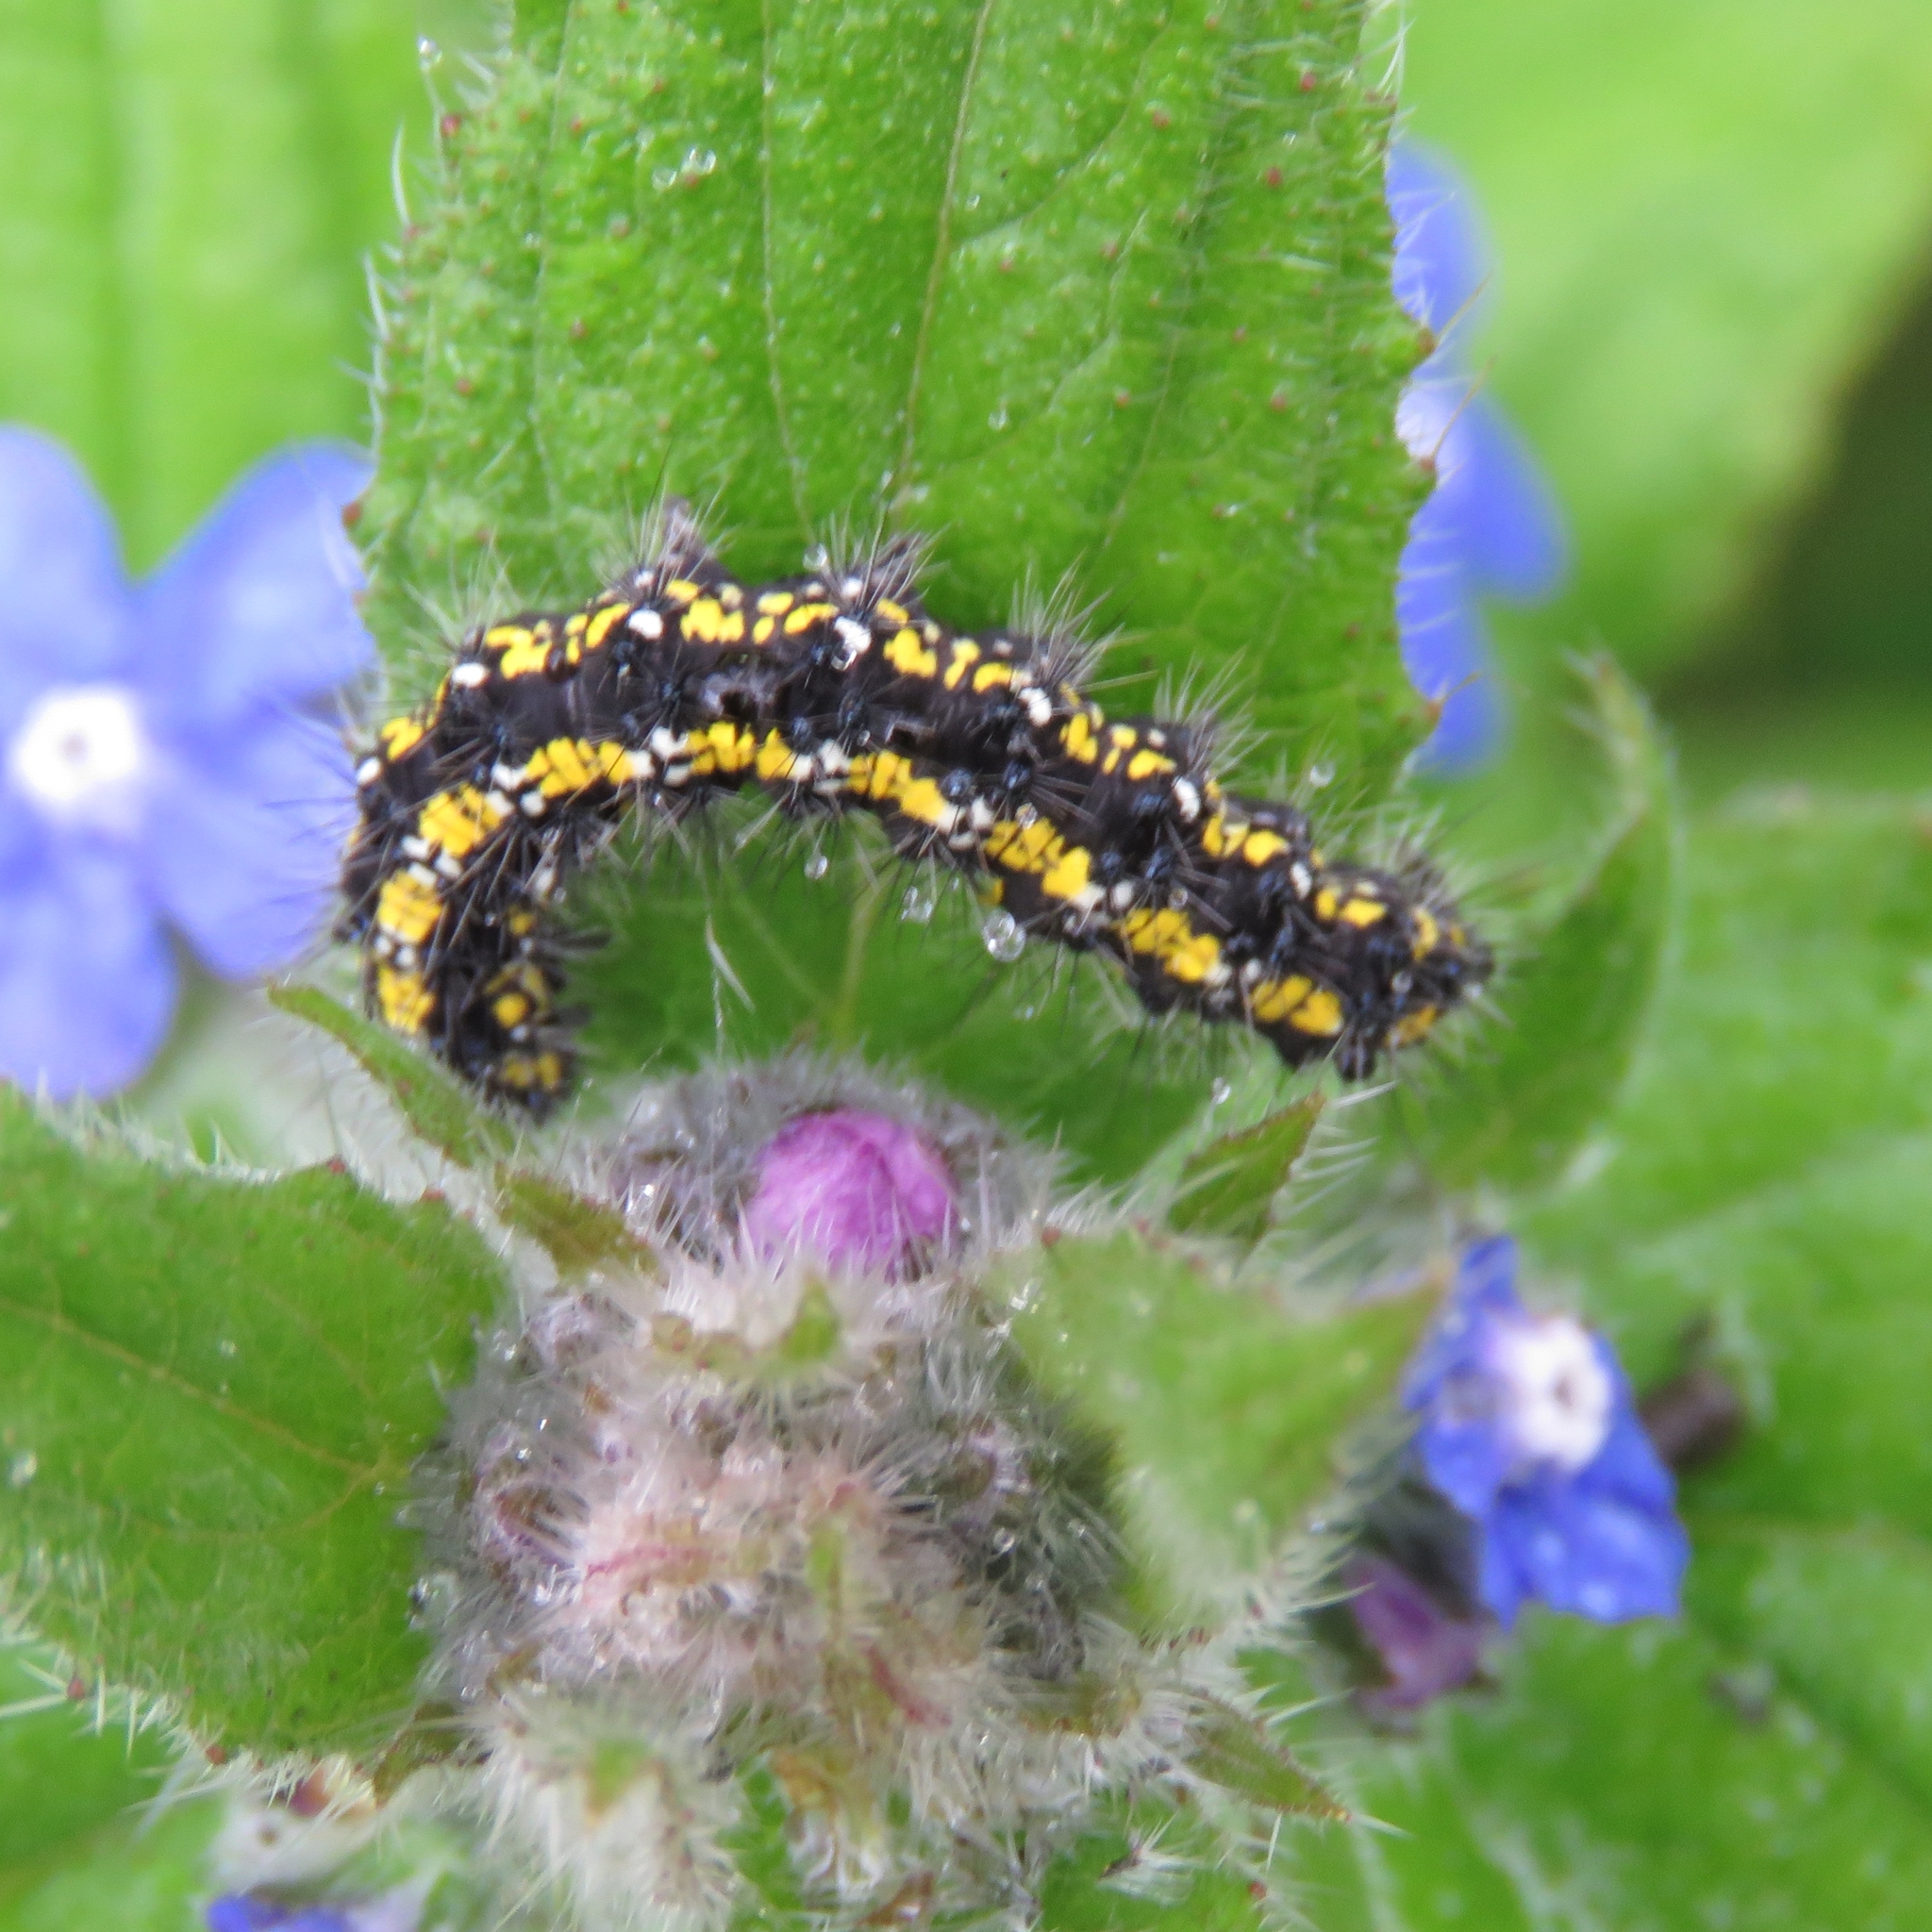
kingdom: Animalia
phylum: Arthropoda
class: Insecta
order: Lepidoptera
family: Erebidae
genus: Callimorpha
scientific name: Callimorpha dominula
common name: Scarlet tiger
